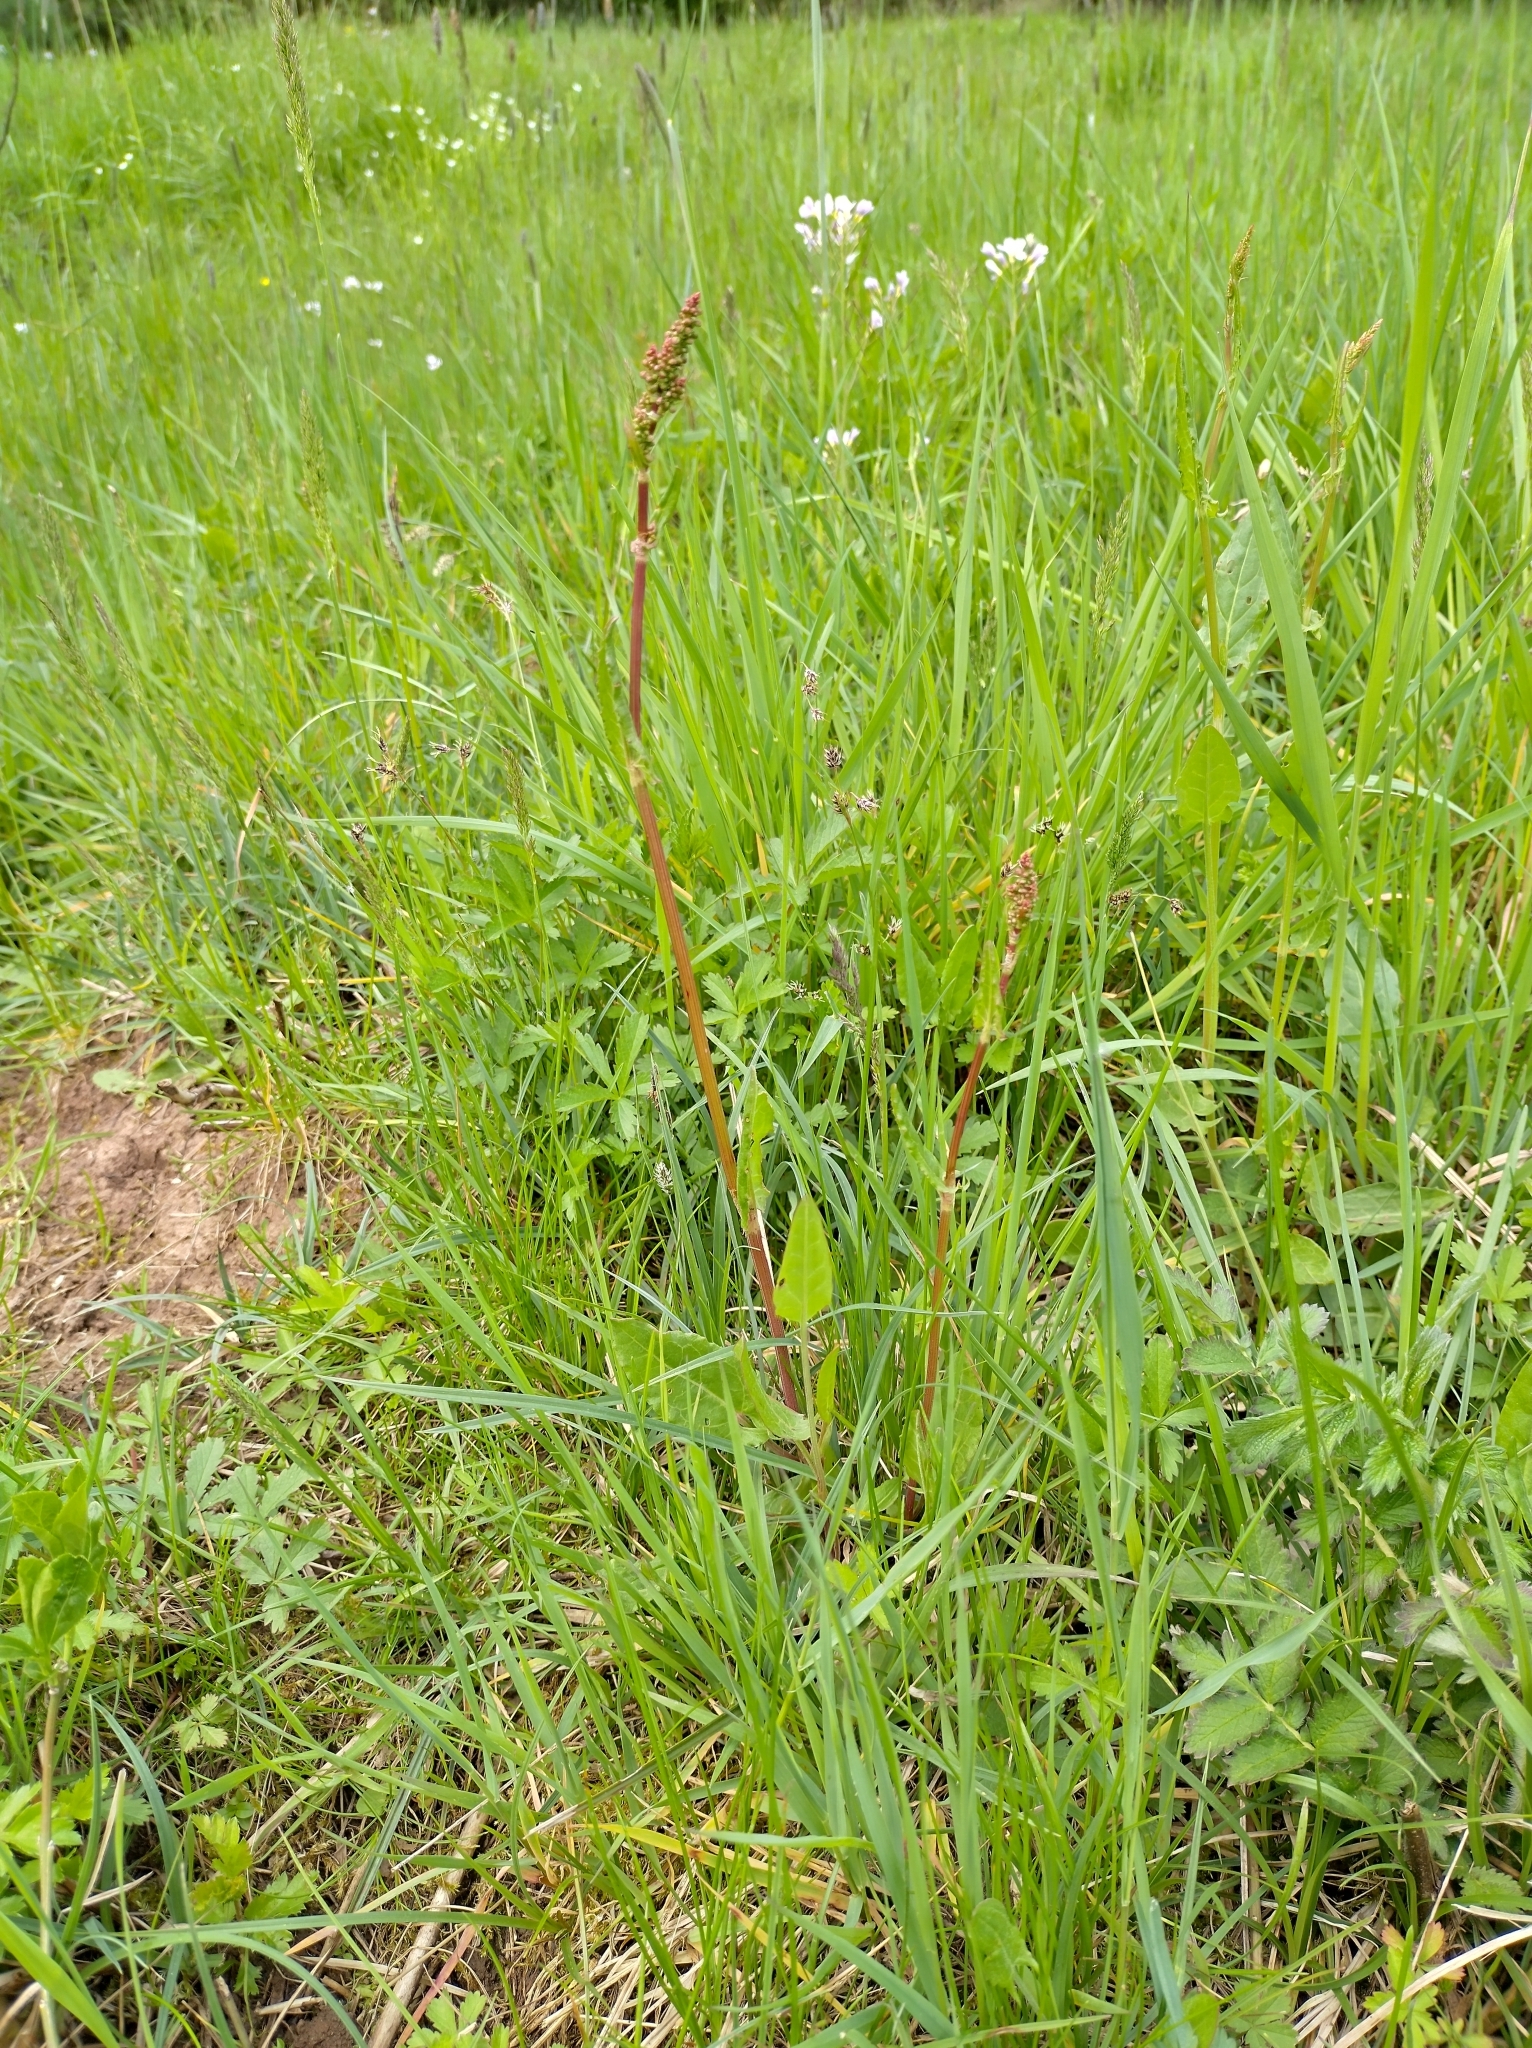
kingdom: Plantae
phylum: Tracheophyta
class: Magnoliopsida
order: Caryophyllales
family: Polygonaceae
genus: Rumex
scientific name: Rumex acetosa
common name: Garden sorrel
